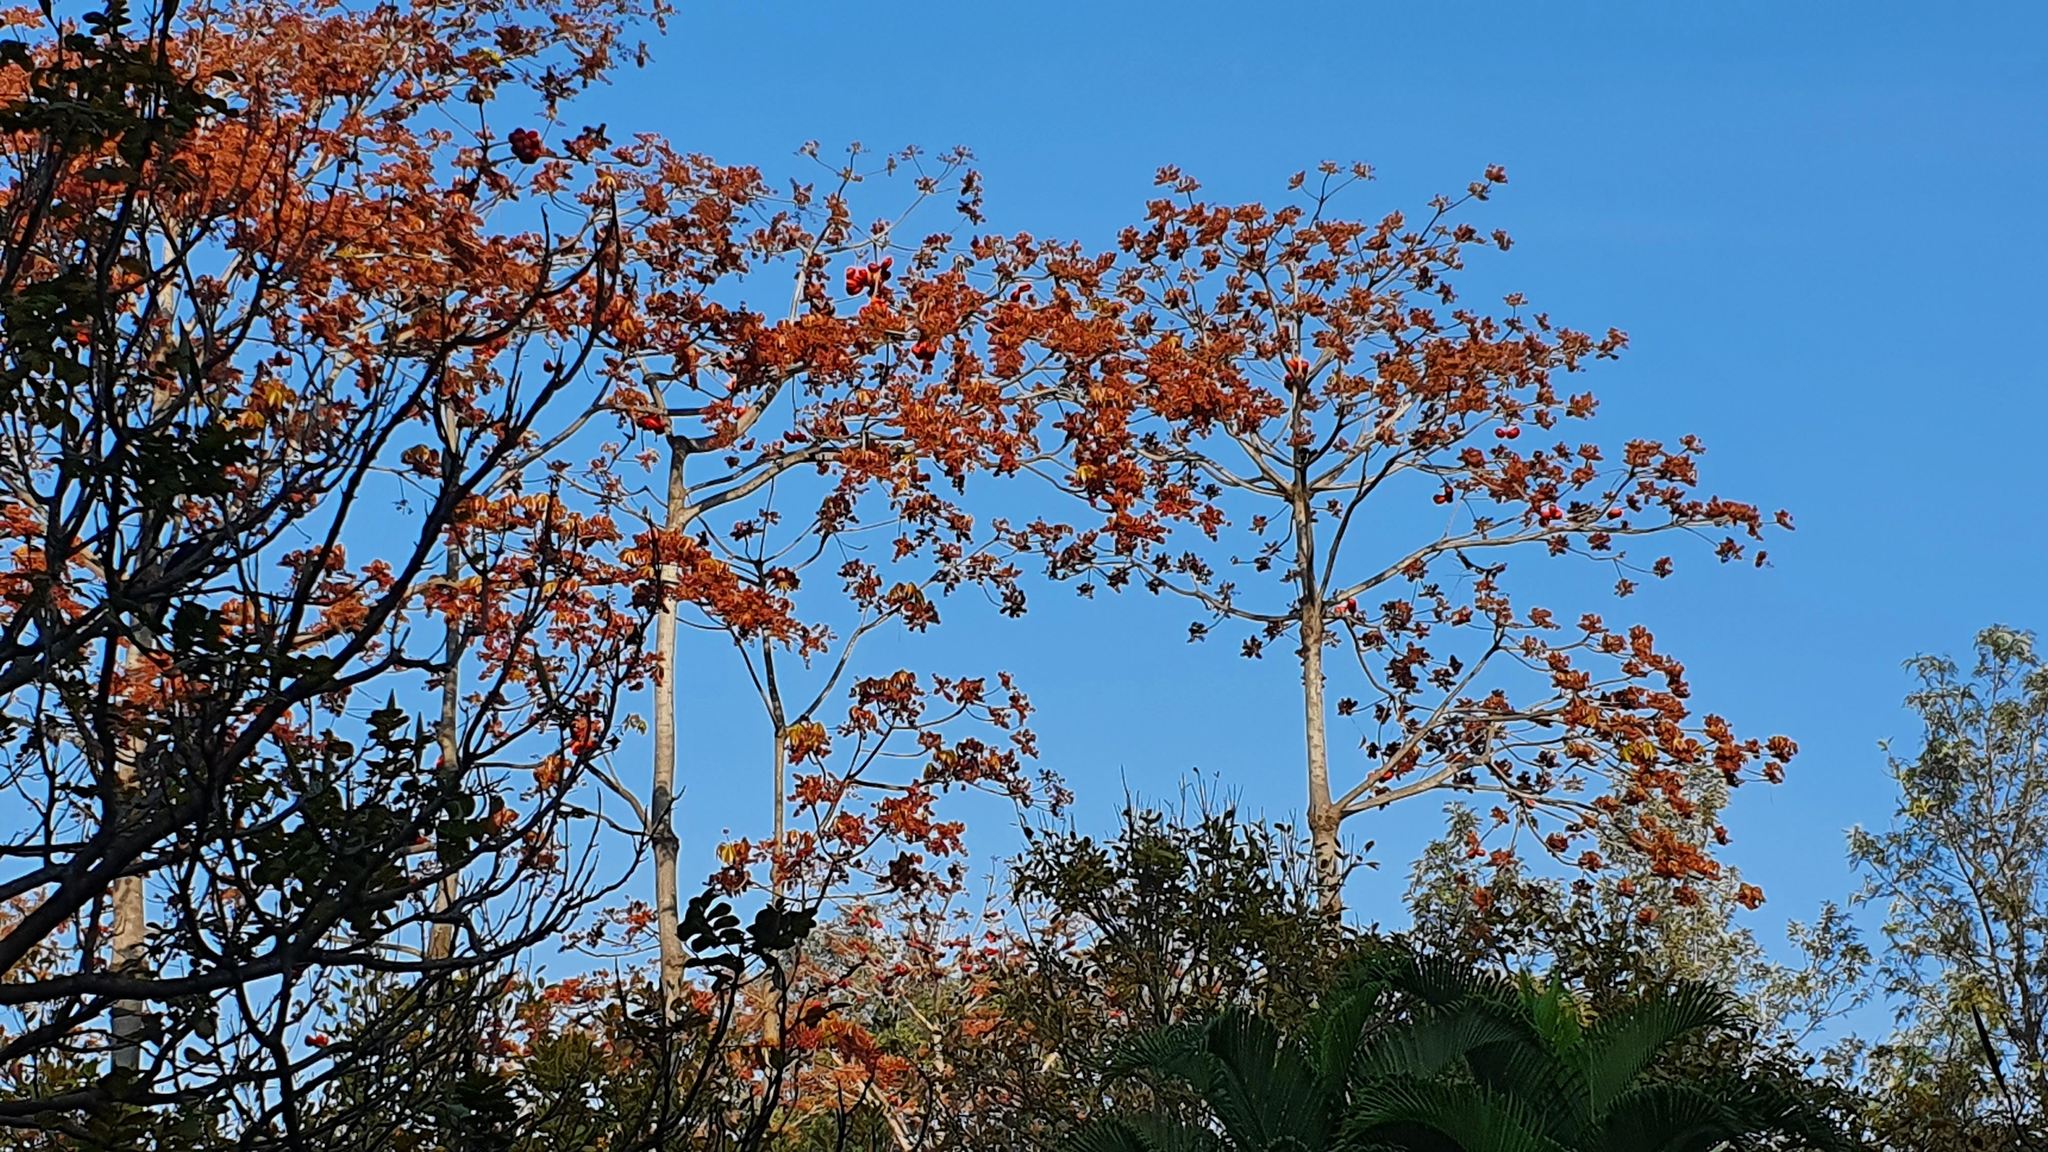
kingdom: Plantae
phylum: Tracheophyta
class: Magnoliopsida
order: Malvales
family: Malvaceae
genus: Sterculia
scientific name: Sterculia foetida
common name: Hazel sterculia
